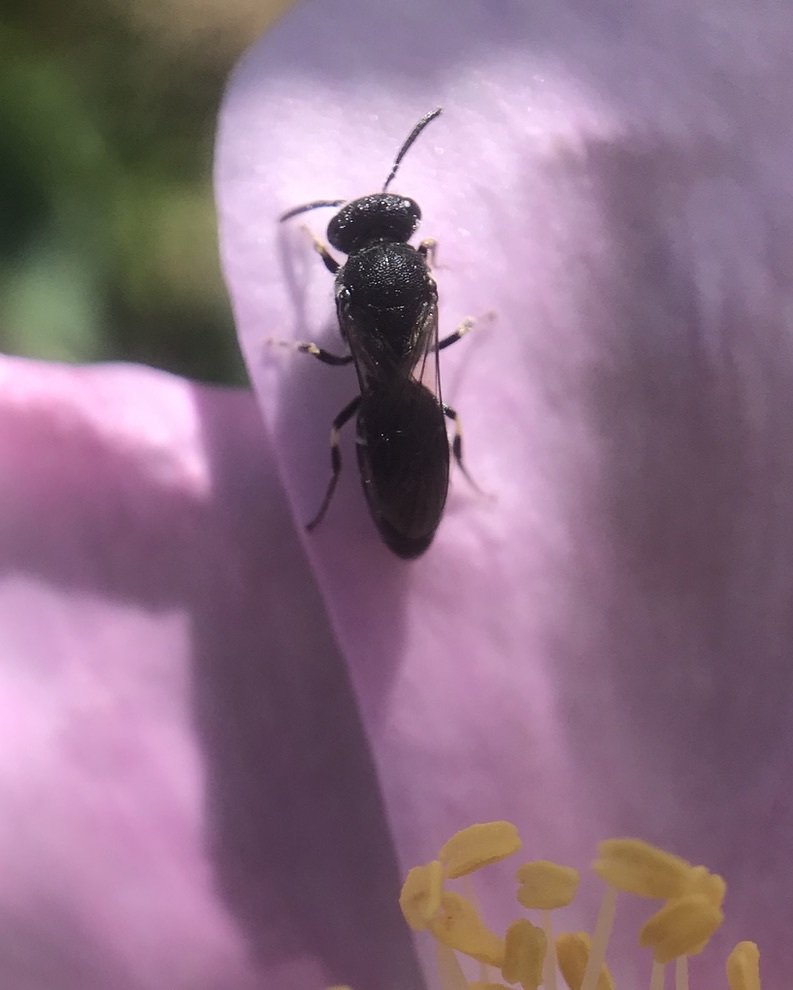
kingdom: Animalia
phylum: Arthropoda
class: Insecta
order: Hymenoptera
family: Colletidae
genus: Hylaeus
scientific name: Hylaeus
